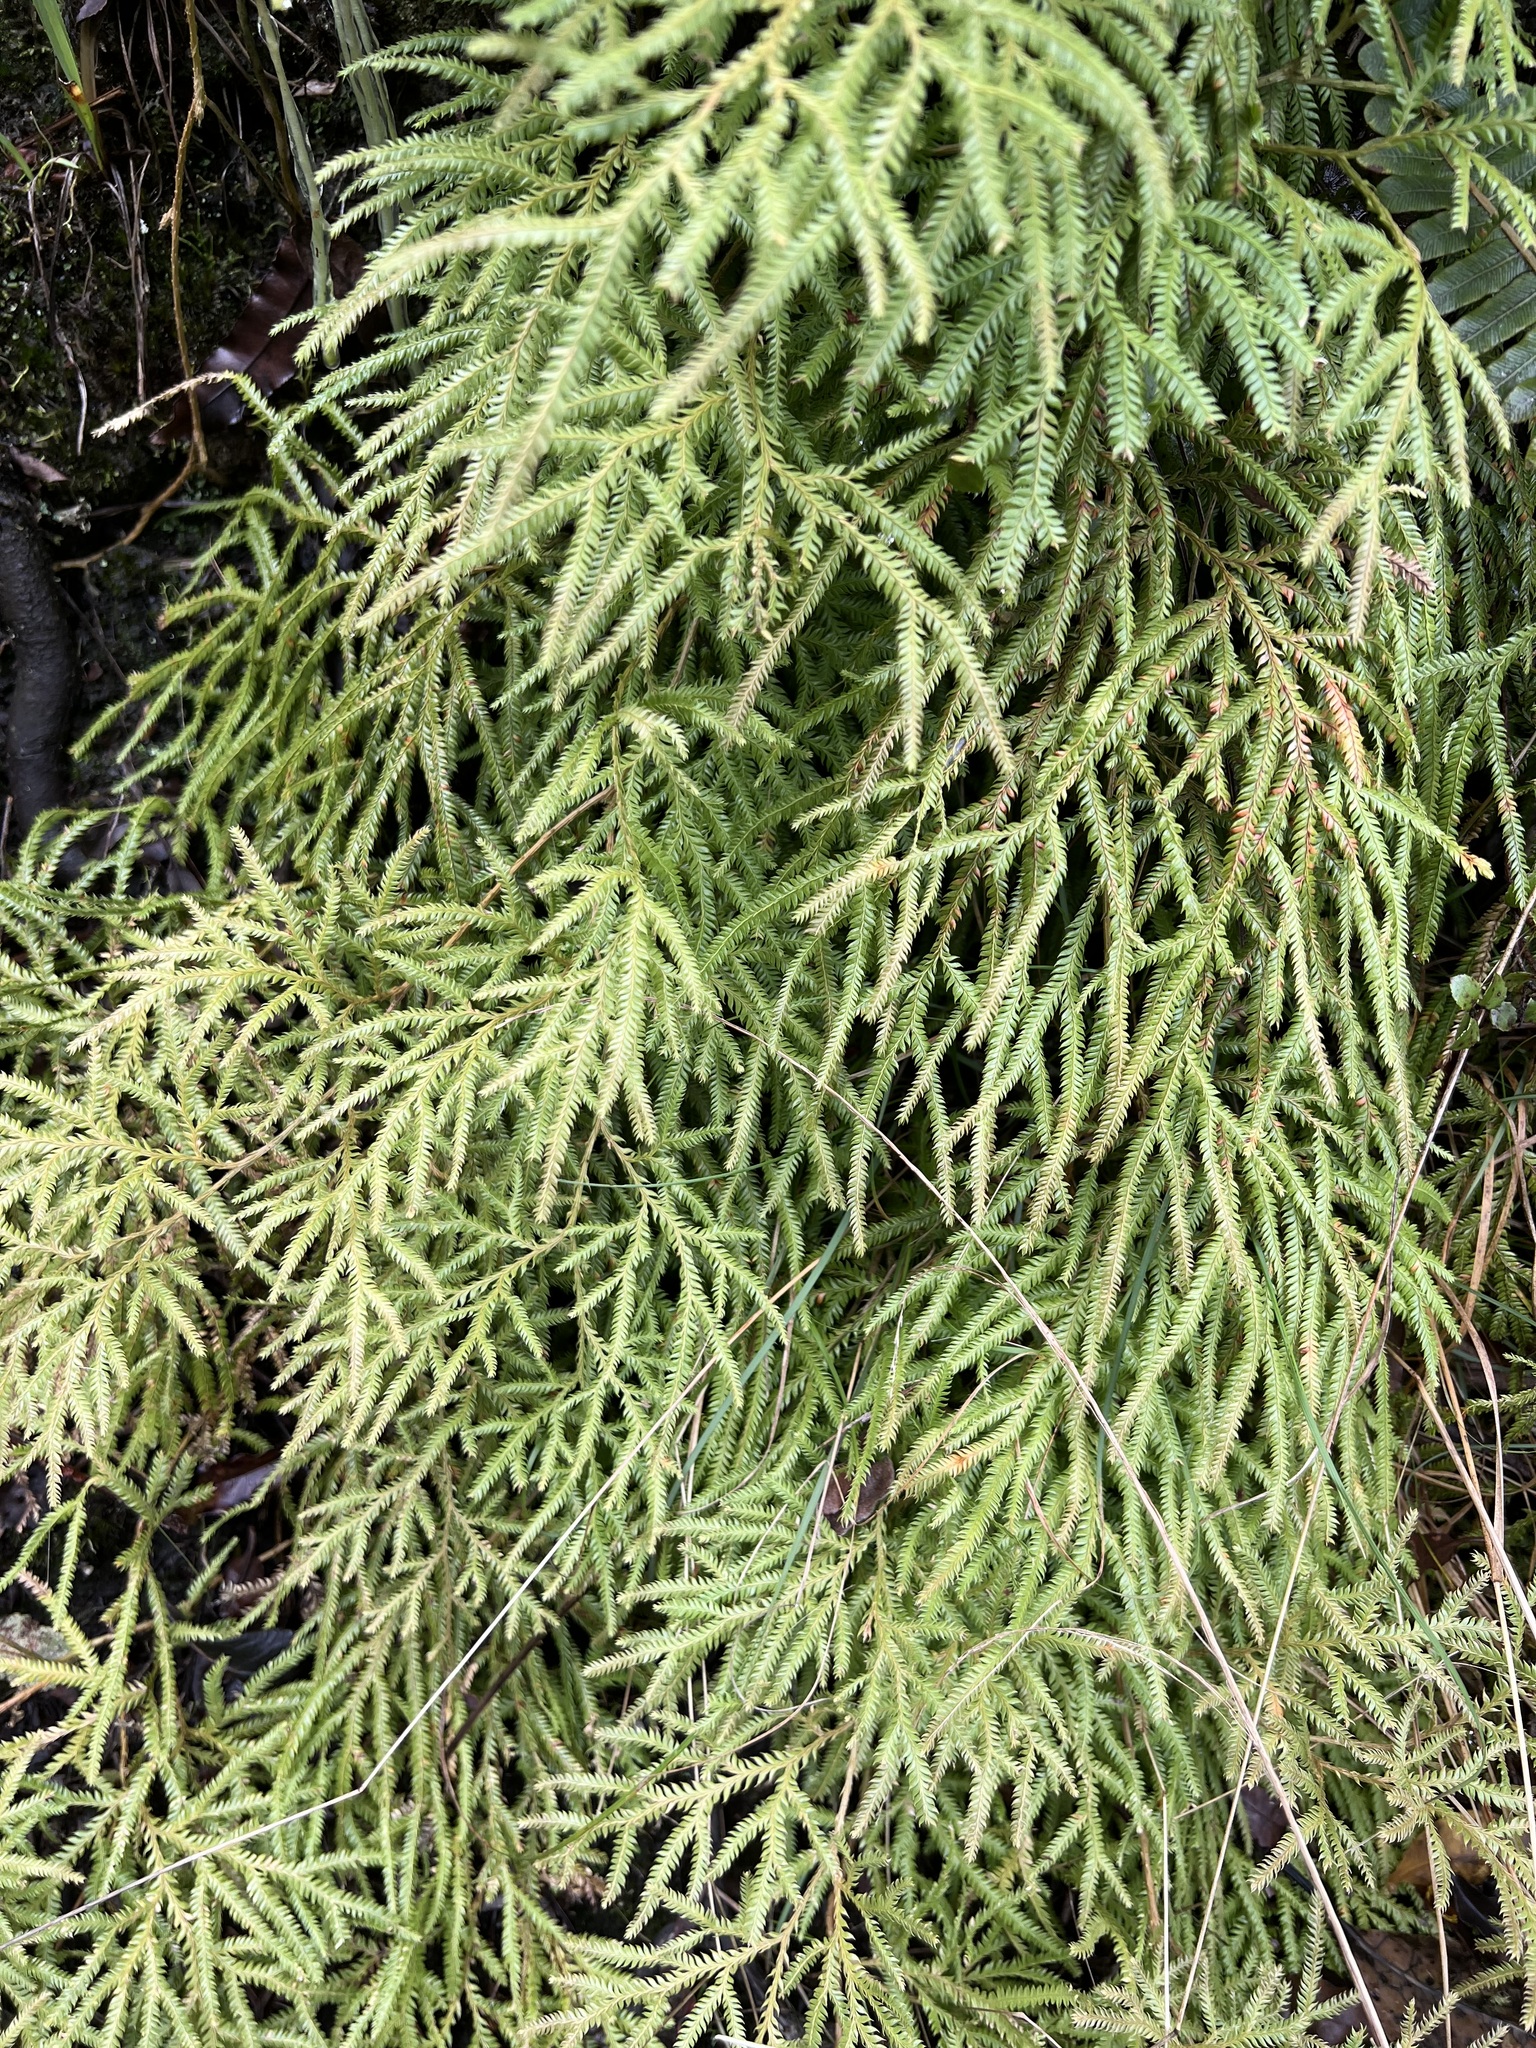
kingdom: Plantae
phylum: Tracheophyta
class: Lycopodiopsida
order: Lycopodiales
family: Lycopodiaceae
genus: Lycopodium
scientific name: Lycopodium volubile
